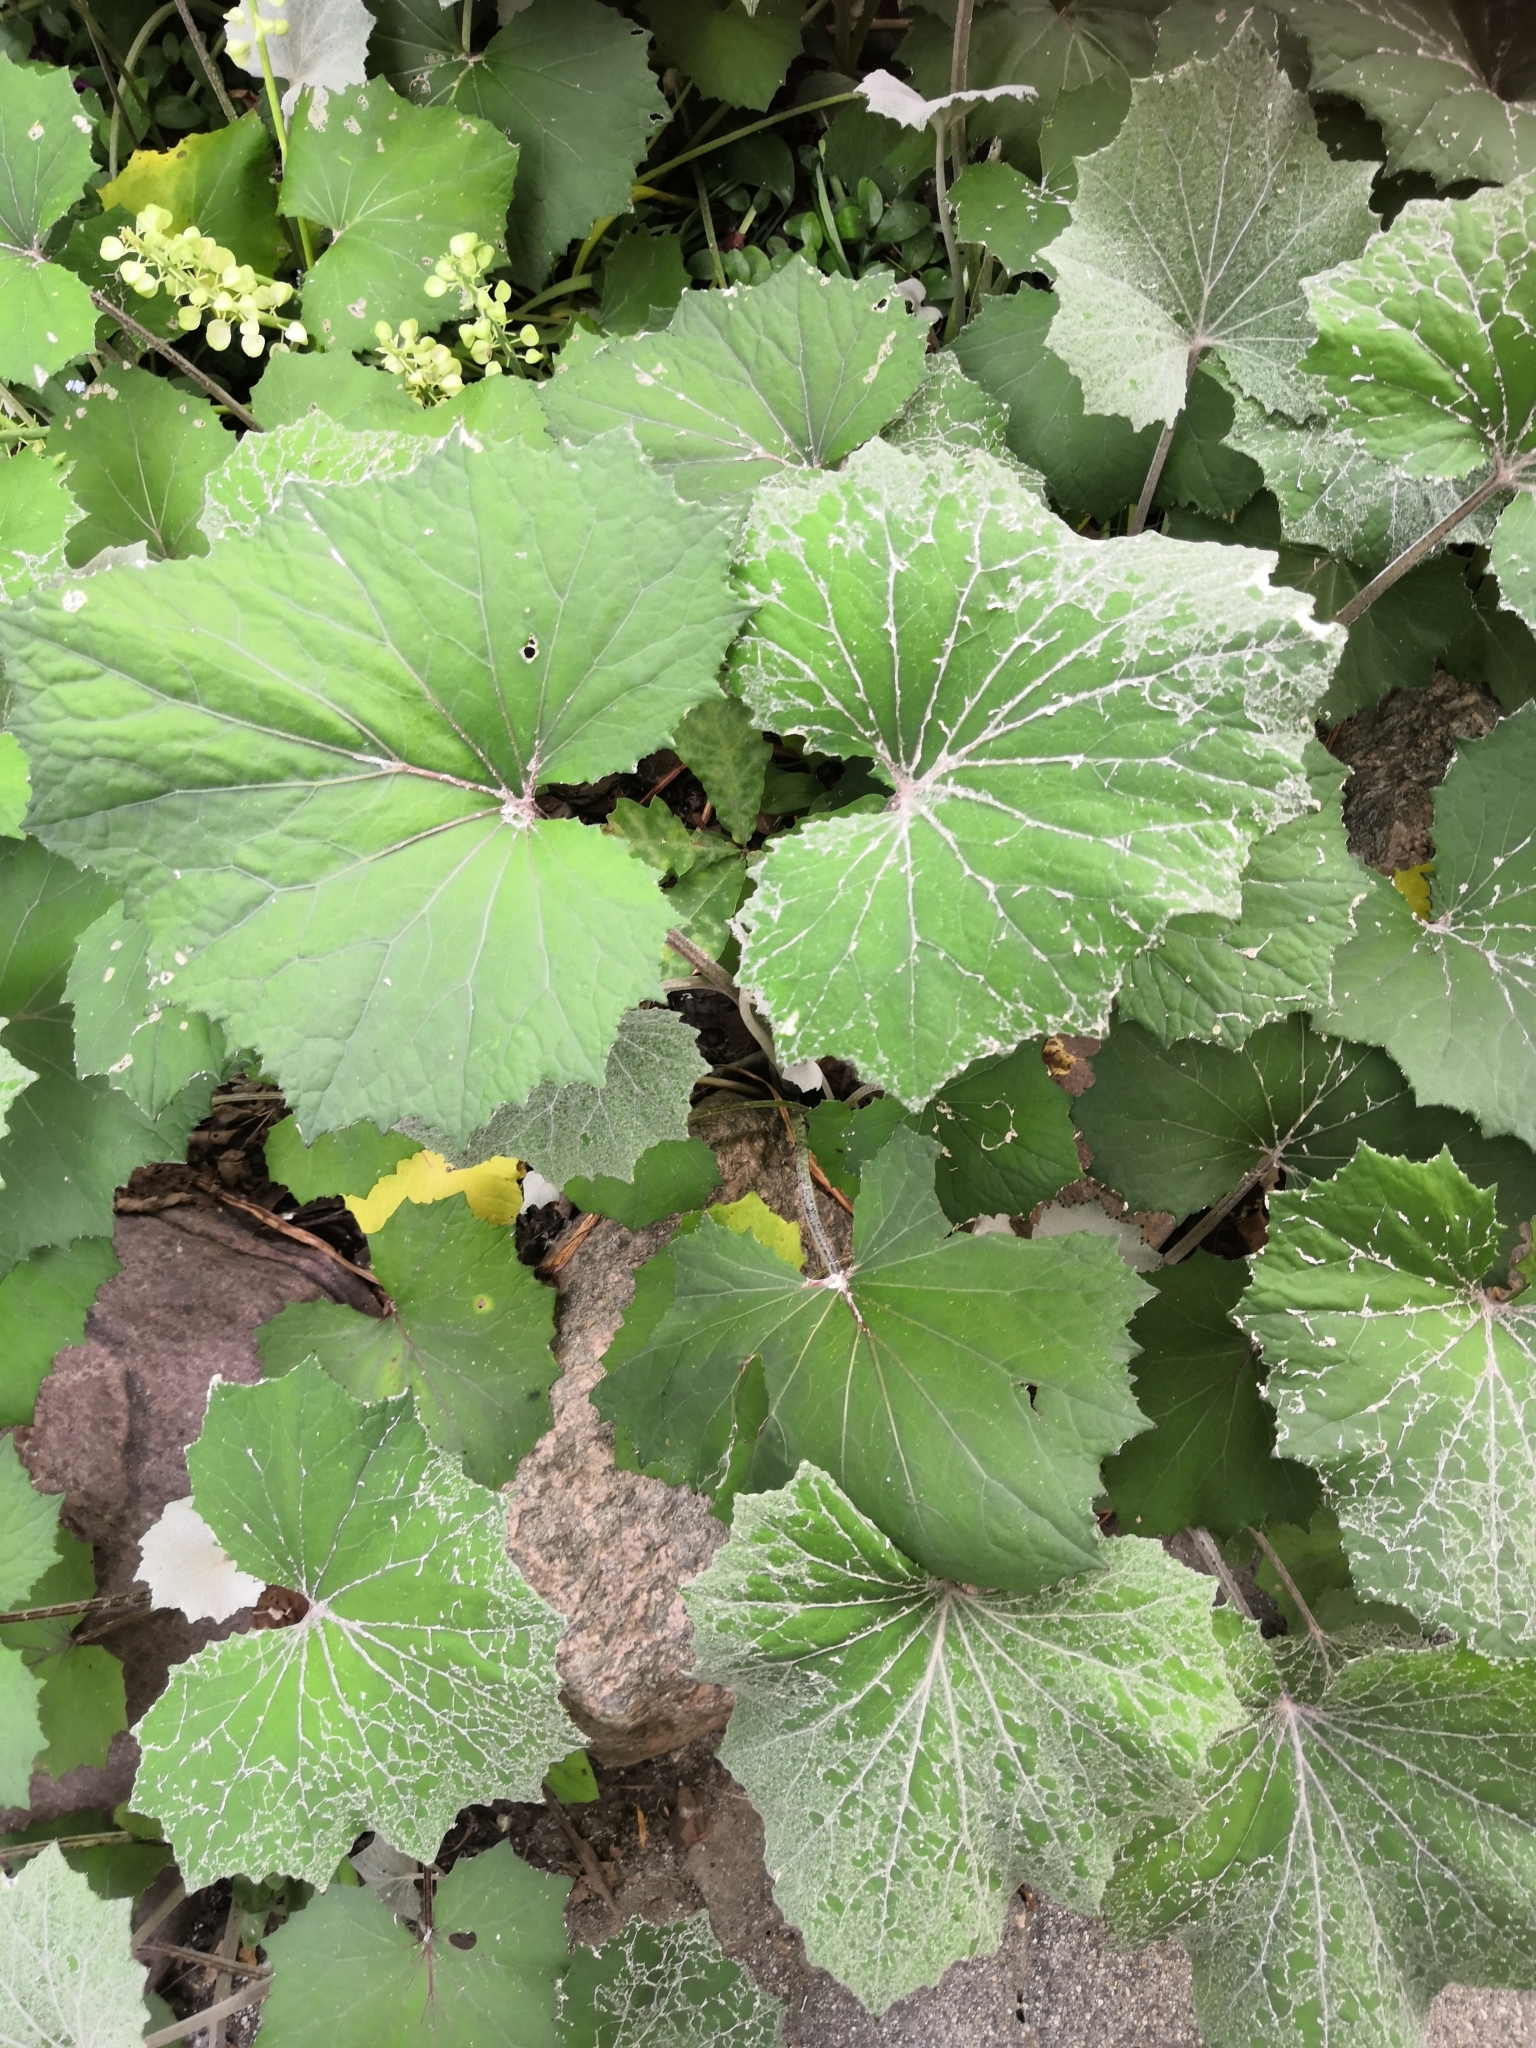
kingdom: Plantae
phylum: Tracheophyta
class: Magnoliopsida
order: Asterales
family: Asteraceae
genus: Tussilago
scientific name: Tussilago farfara
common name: Coltsfoot
